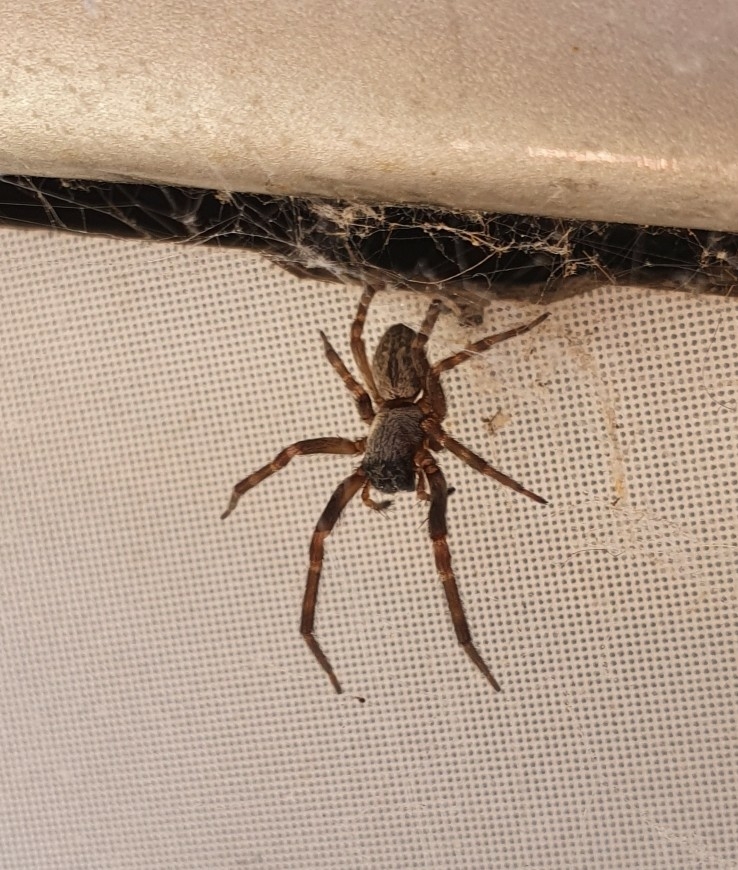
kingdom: Animalia
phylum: Arthropoda
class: Arachnida
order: Araneae
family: Desidae
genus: Badumna
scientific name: Badumna longinqua
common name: Gray house spider
